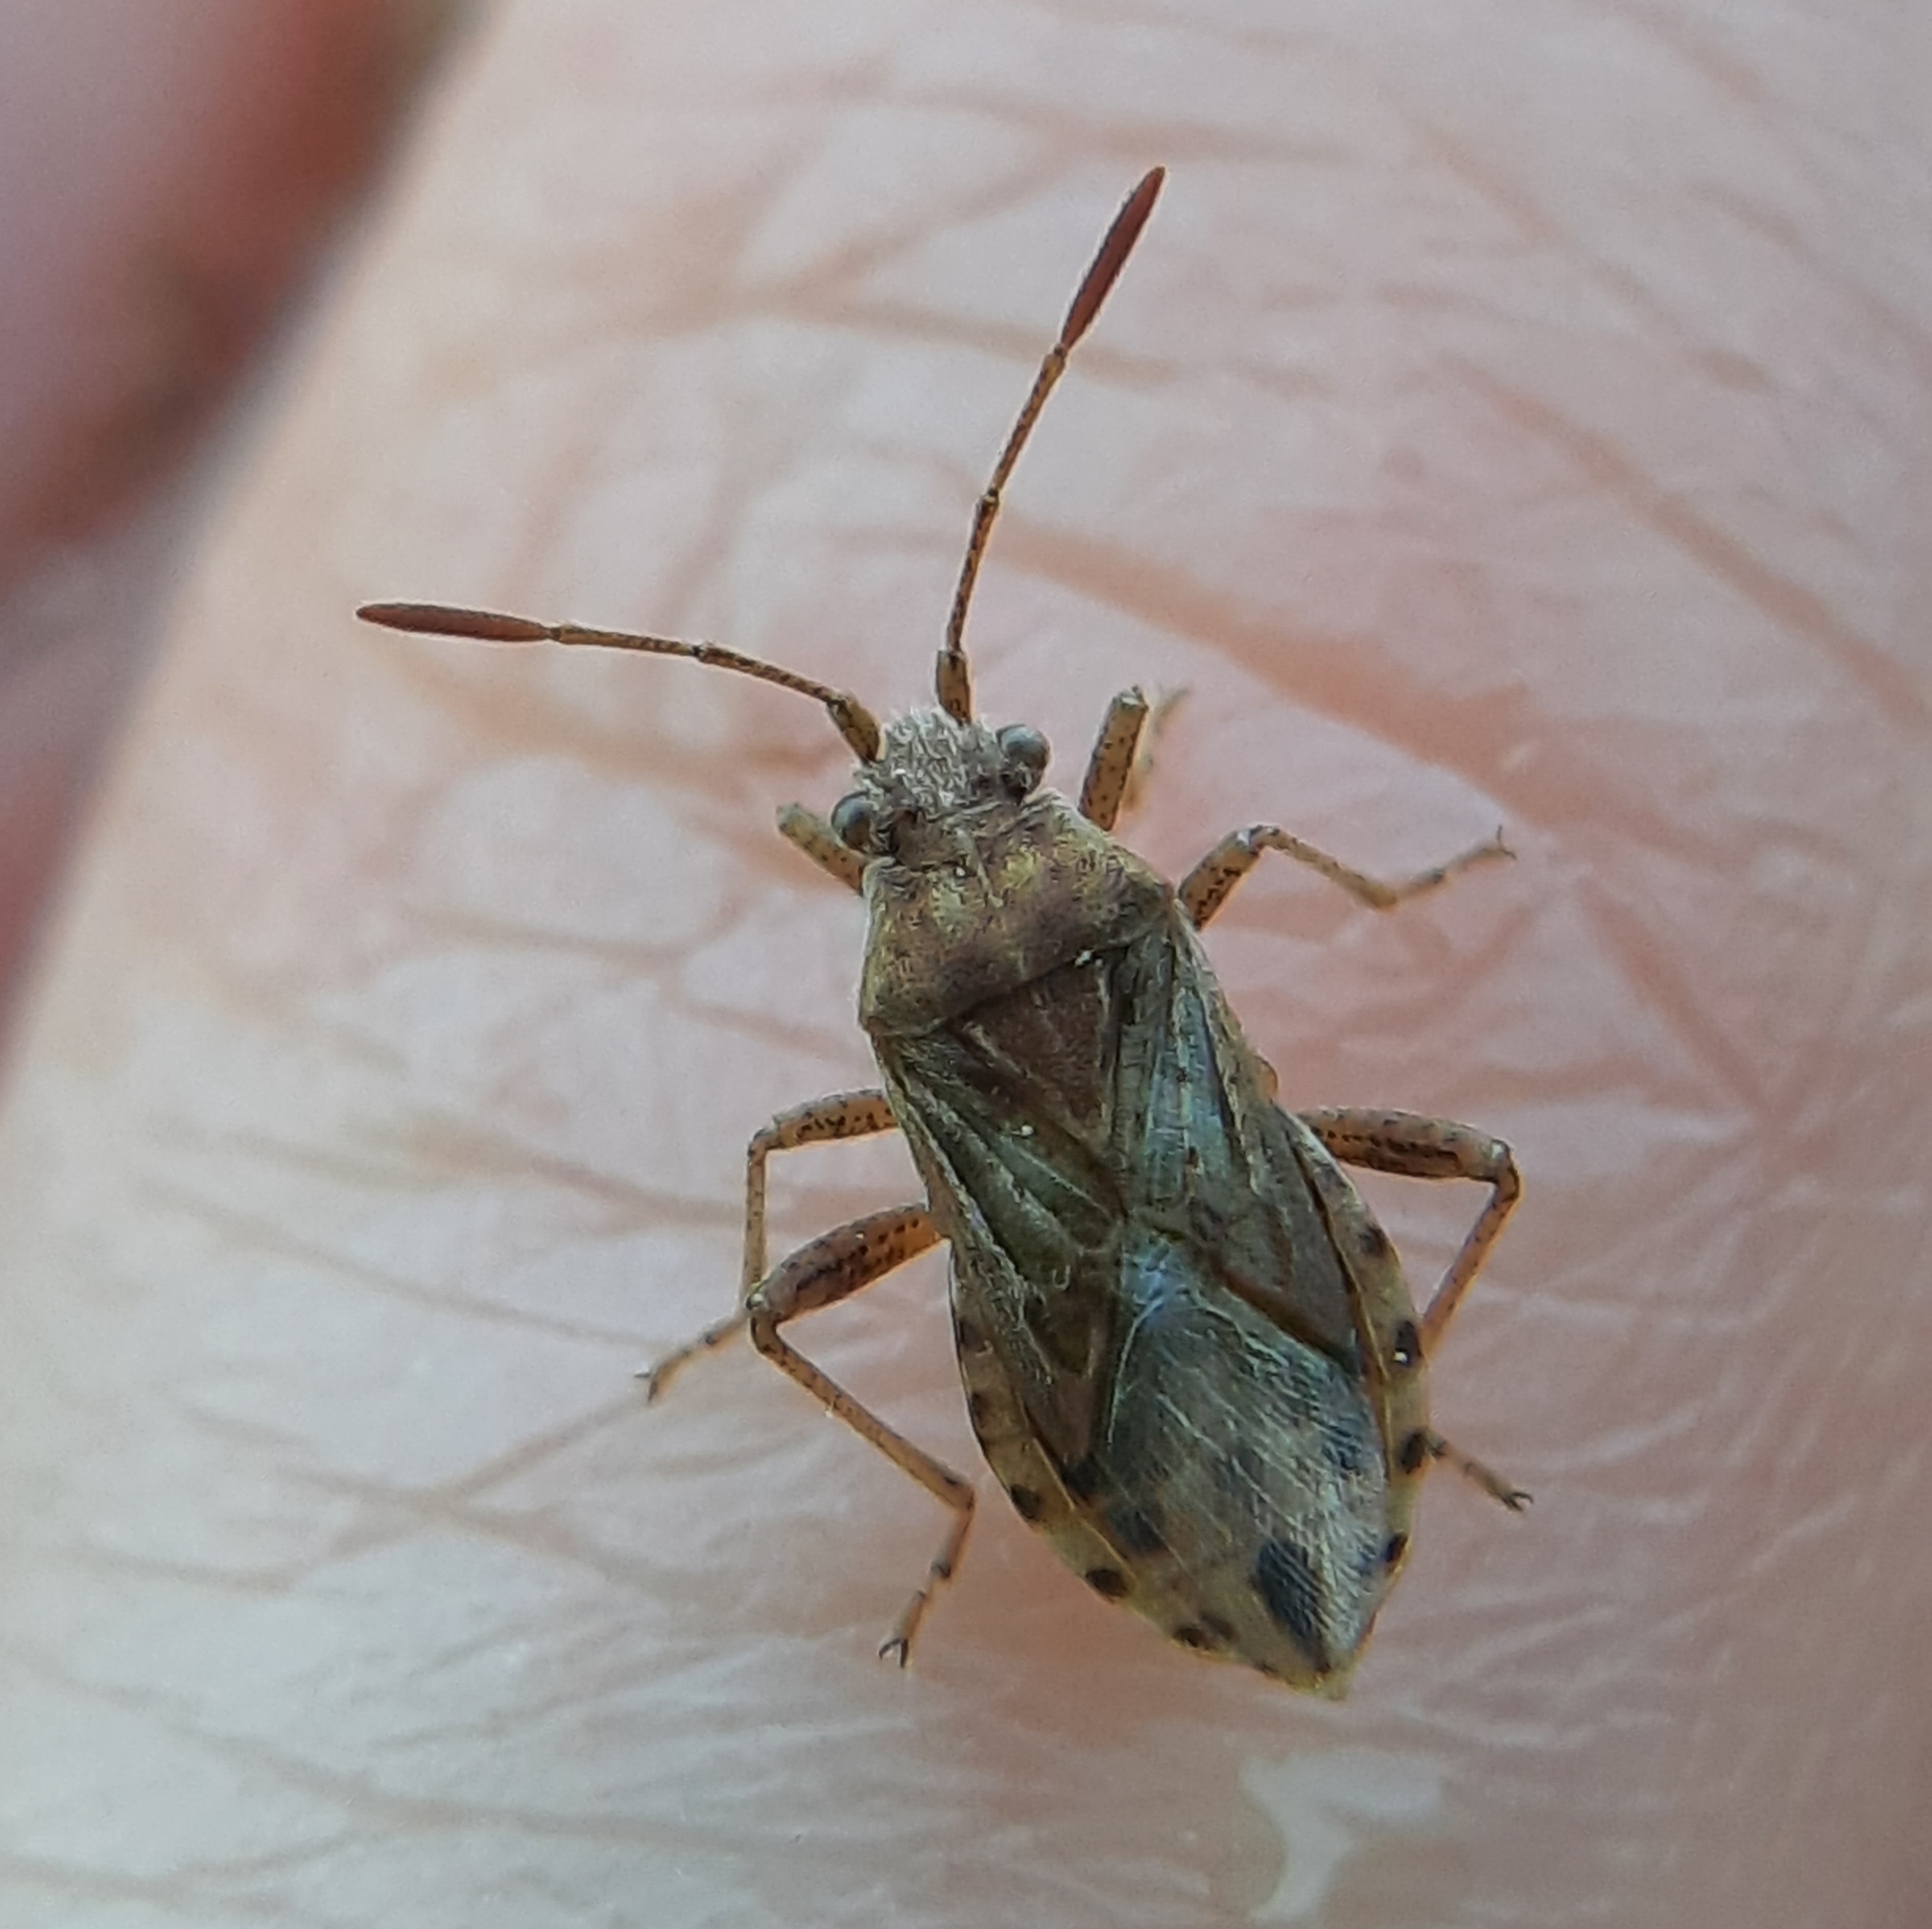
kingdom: Animalia
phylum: Arthropoda
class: Insecta
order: Hemiptera
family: Rhopalidae
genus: Stictopleurus
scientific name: Stictopleurus punctiventris
